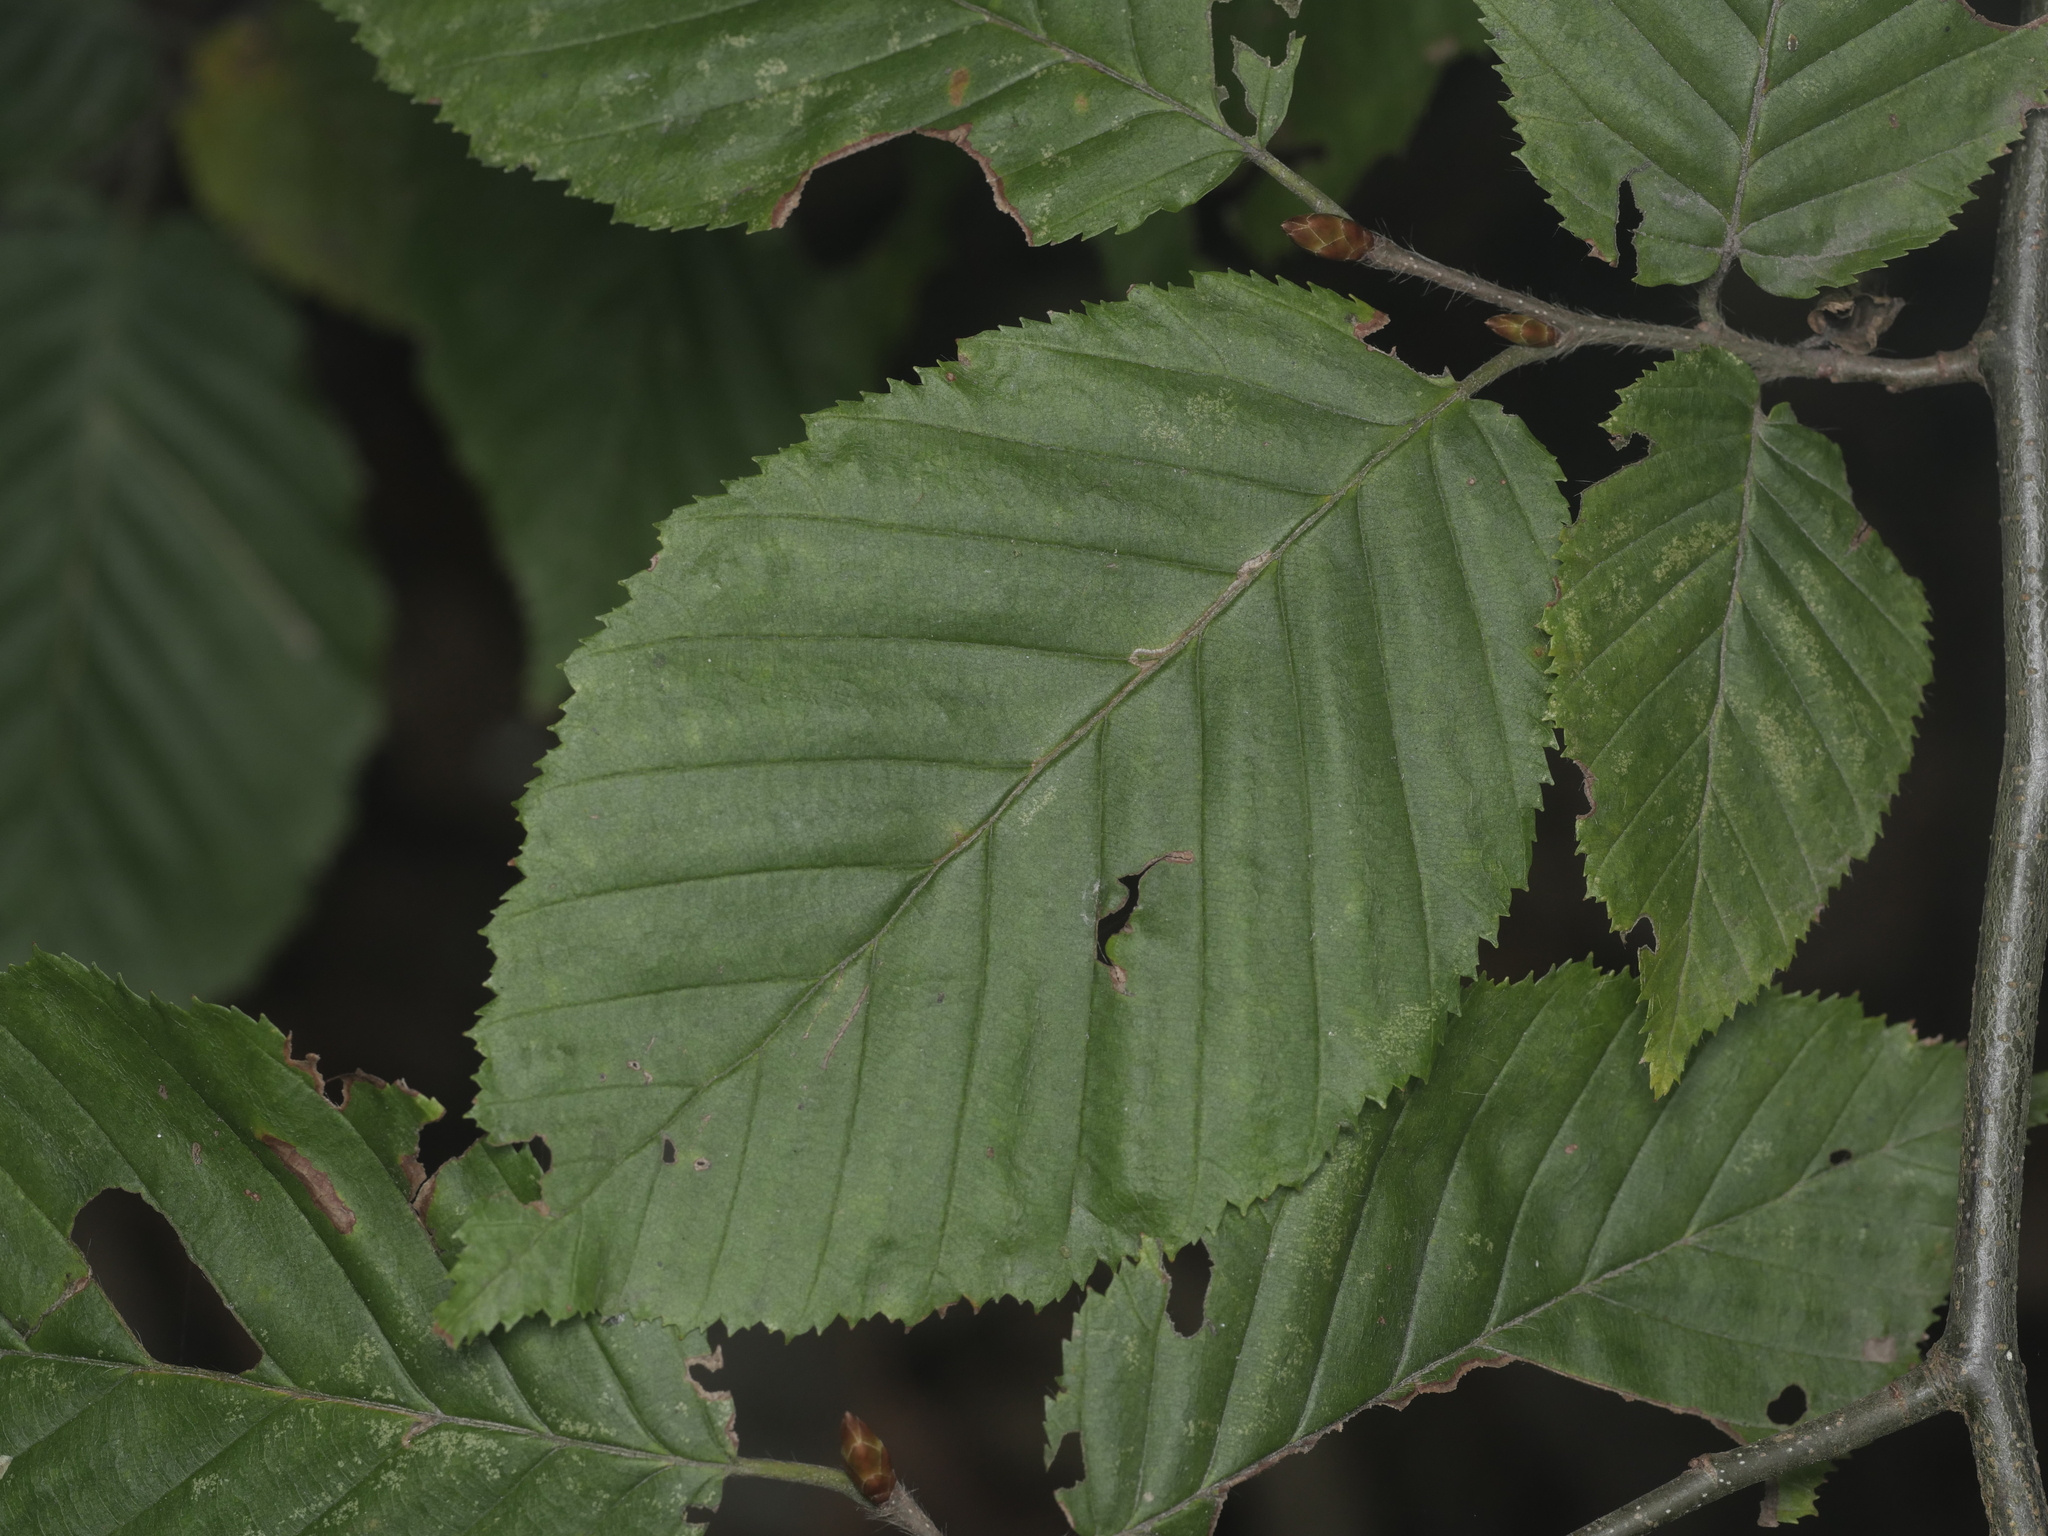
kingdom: Plantae
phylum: Tracheophyta
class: Magnoliopsida
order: Fagales
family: Betulaceae
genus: Carpinus
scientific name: Carpinus betulus
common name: Hornbeam
